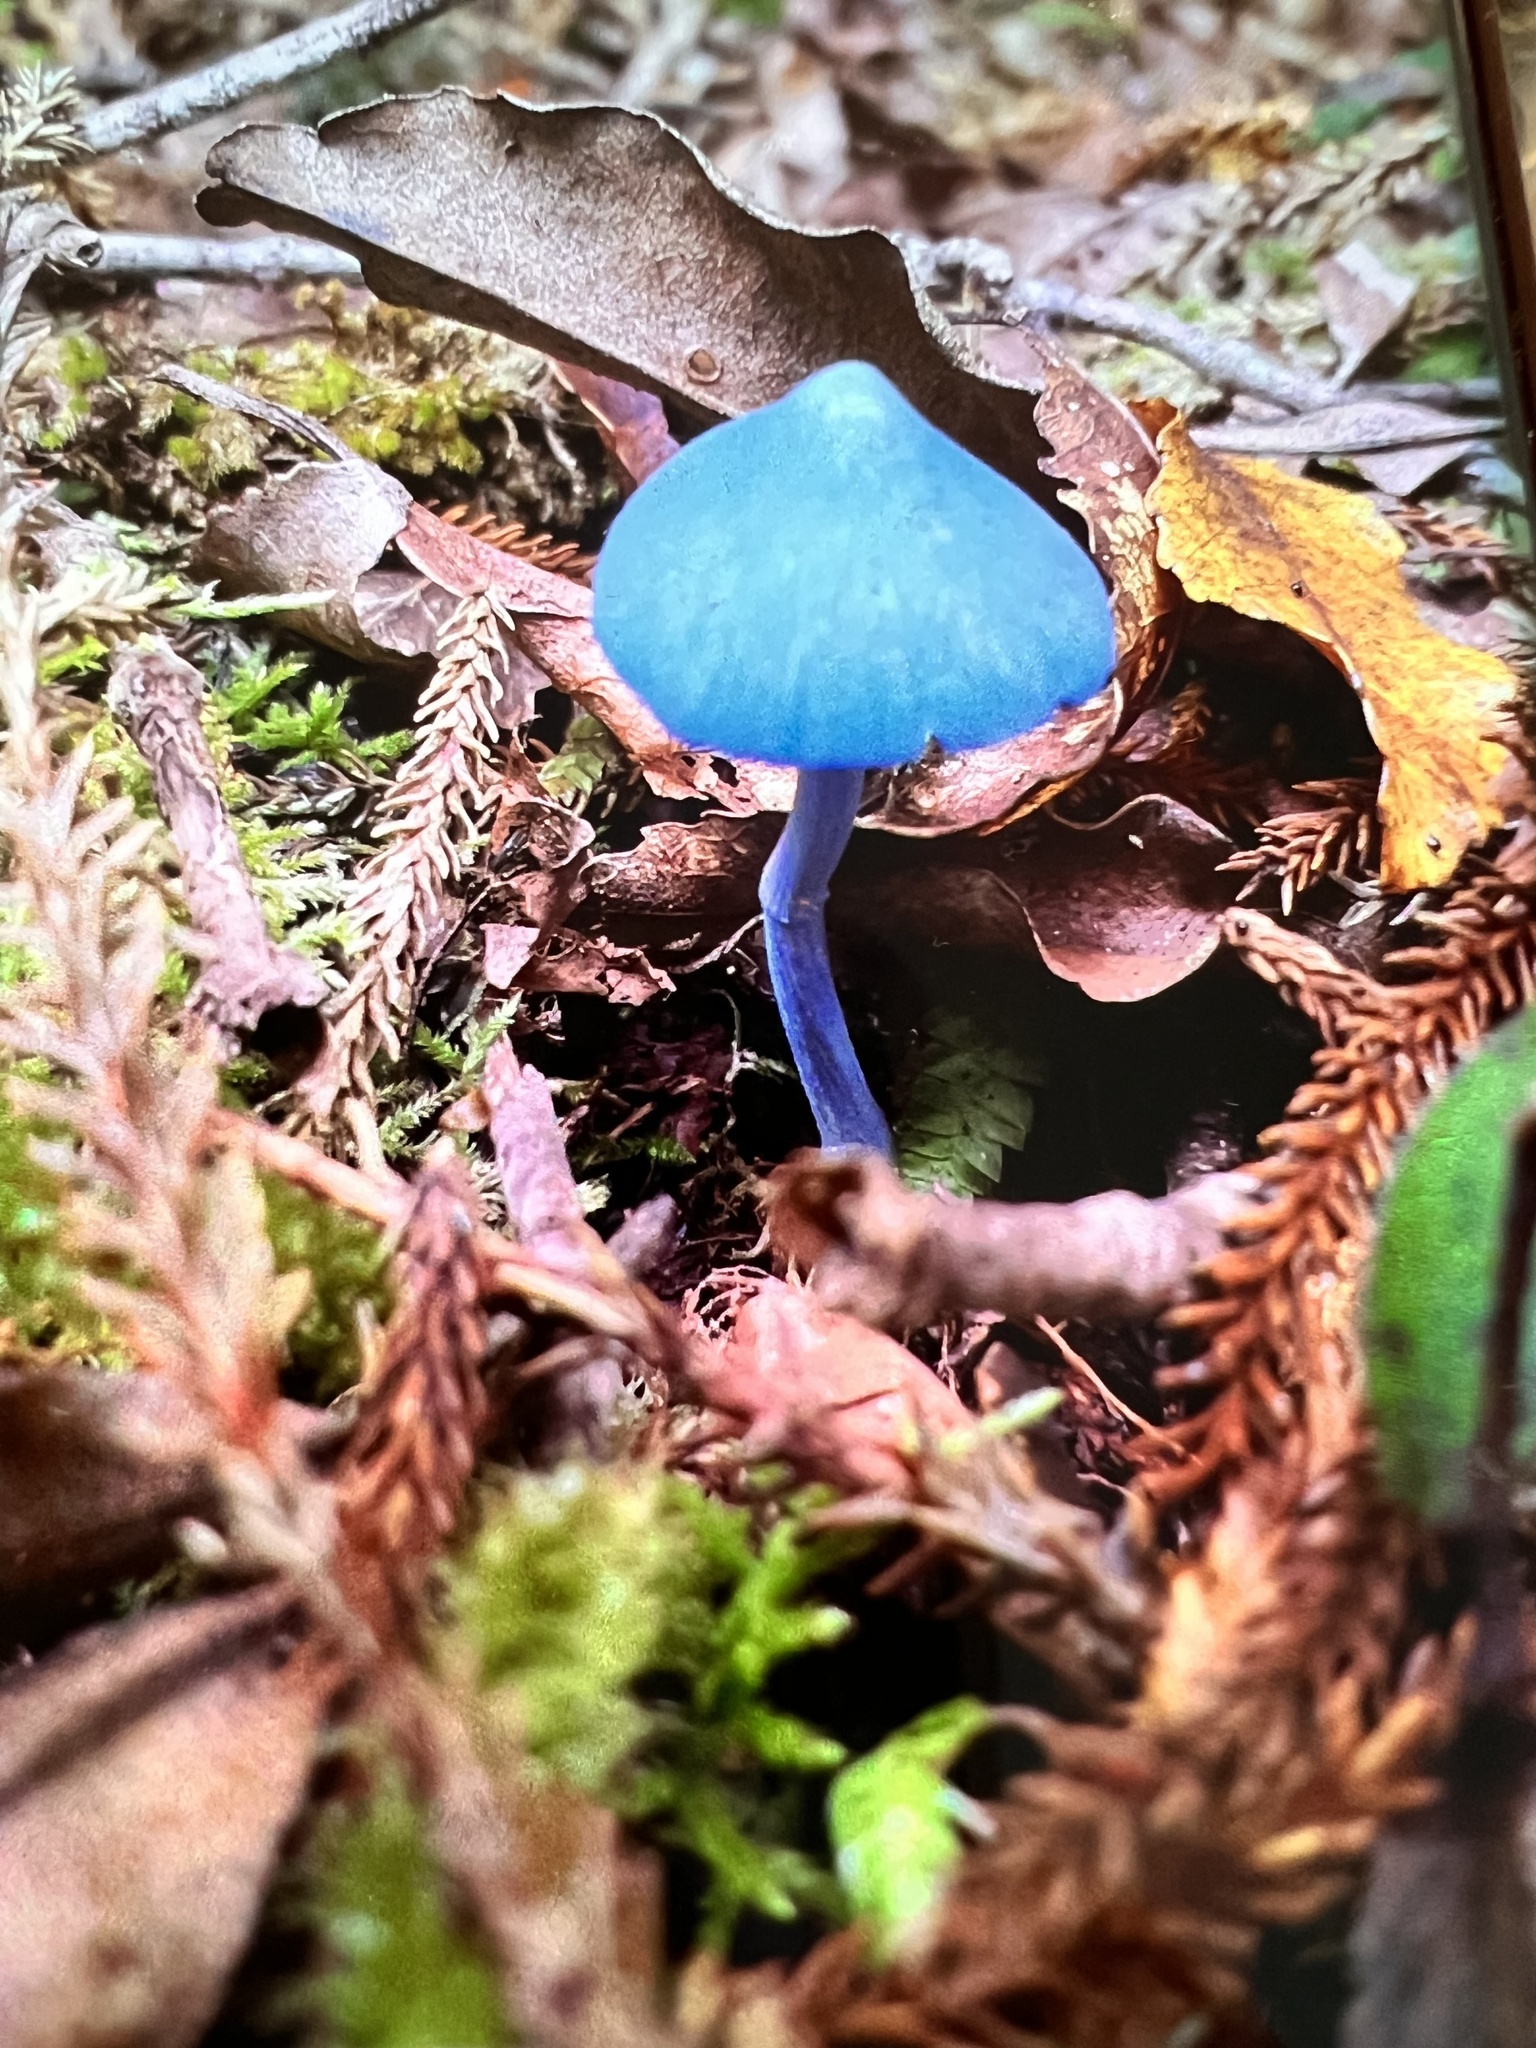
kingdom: Fungi
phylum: Basidiomycota
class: Agaricomycetes
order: Agaricales
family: Entolomataceae
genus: Entoloma
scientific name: Entoloma hochstetteri
